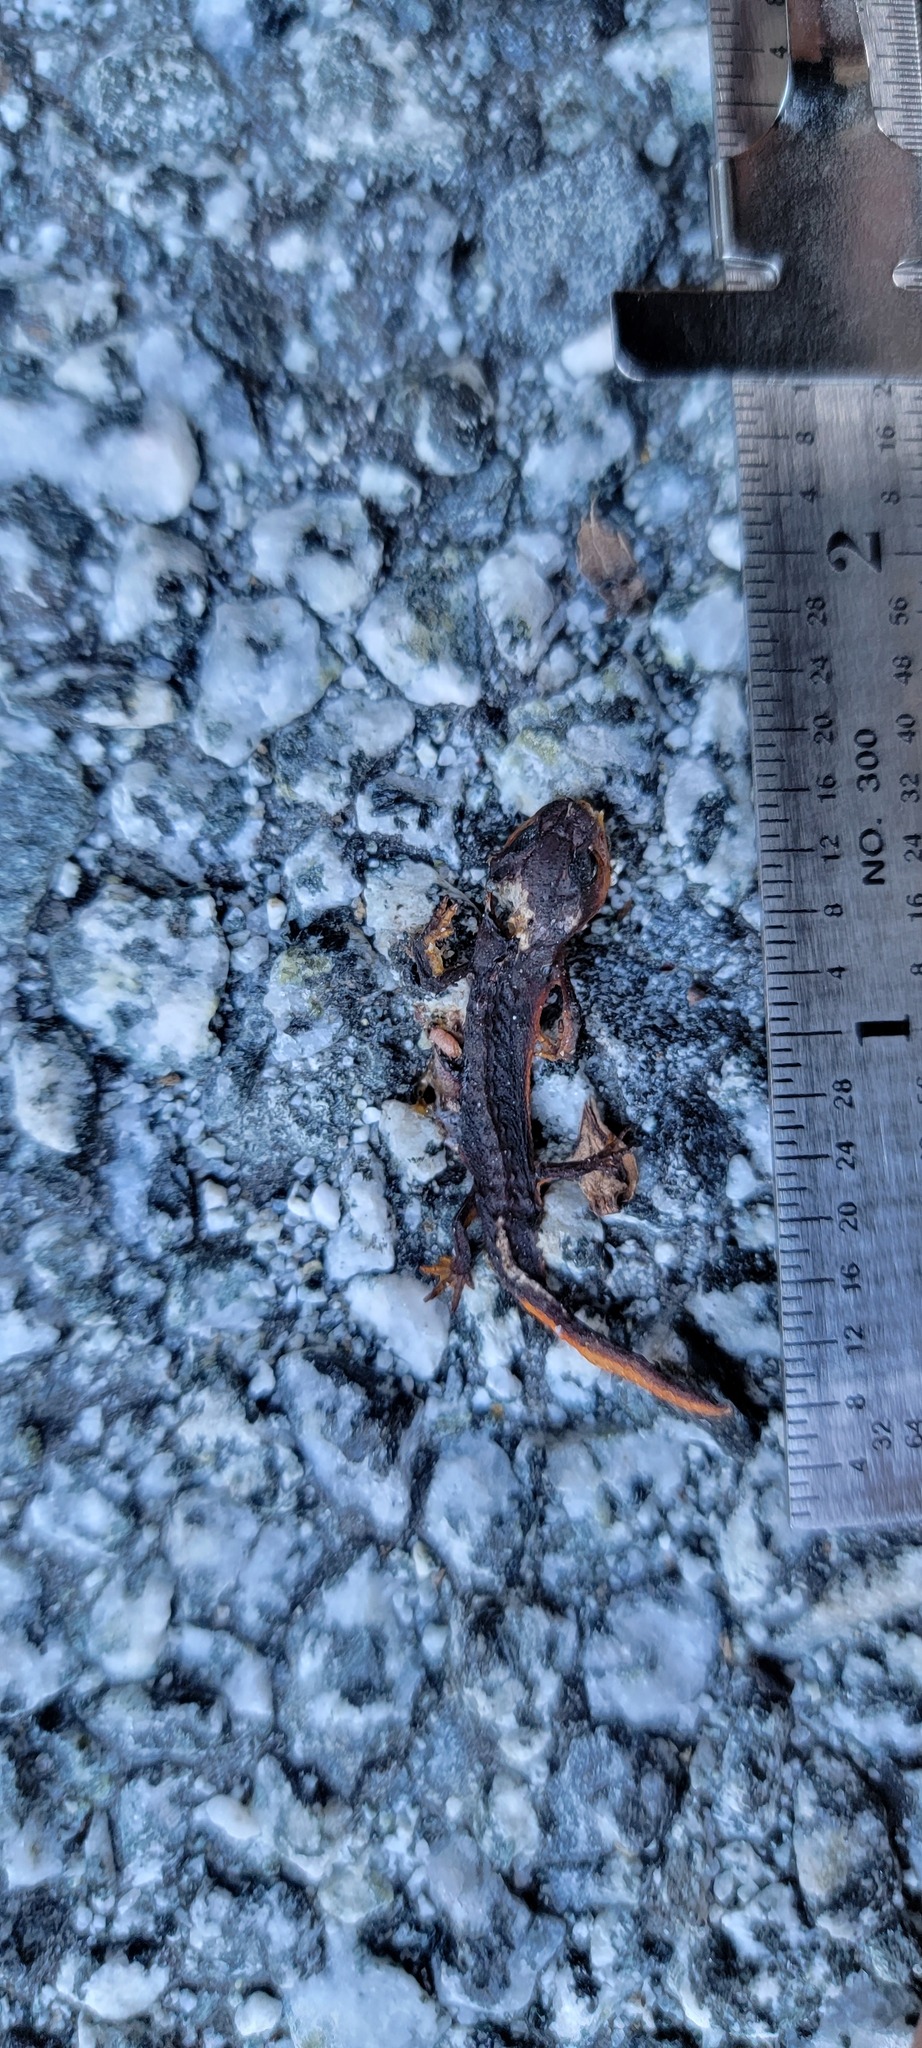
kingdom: Animalia
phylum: Chordata
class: Amphibia
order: Caudata
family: Salamandridae
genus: Taricha
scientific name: Taricha
